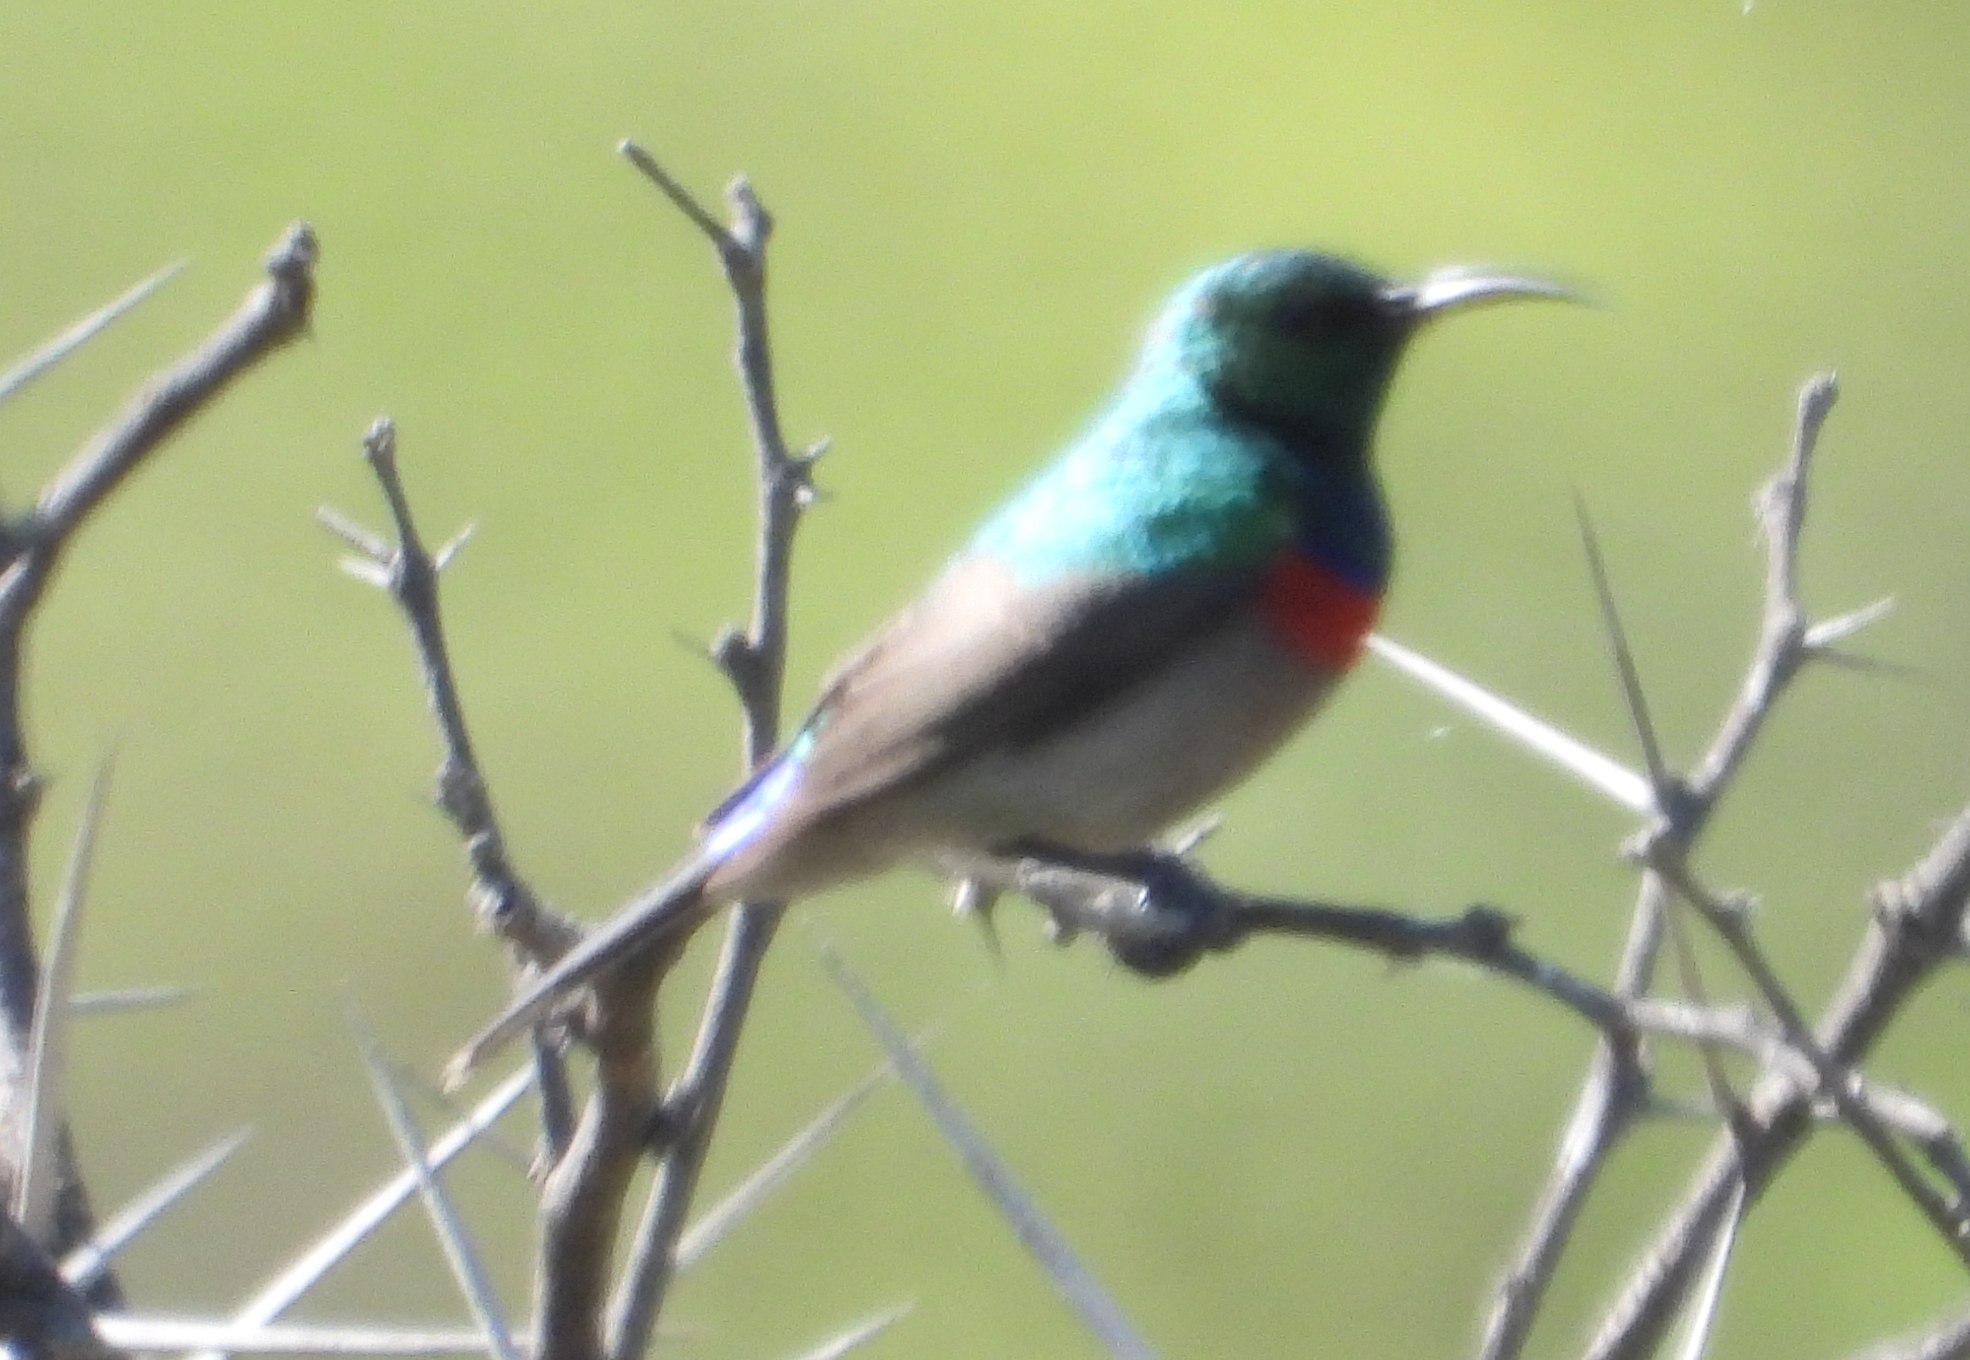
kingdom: Animalia
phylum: Chordata
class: Aves
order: Passeriformes
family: Nectariniidae
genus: Cinnyris
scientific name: Cinnyris chalybeus
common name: Southern double-collared sunbird
